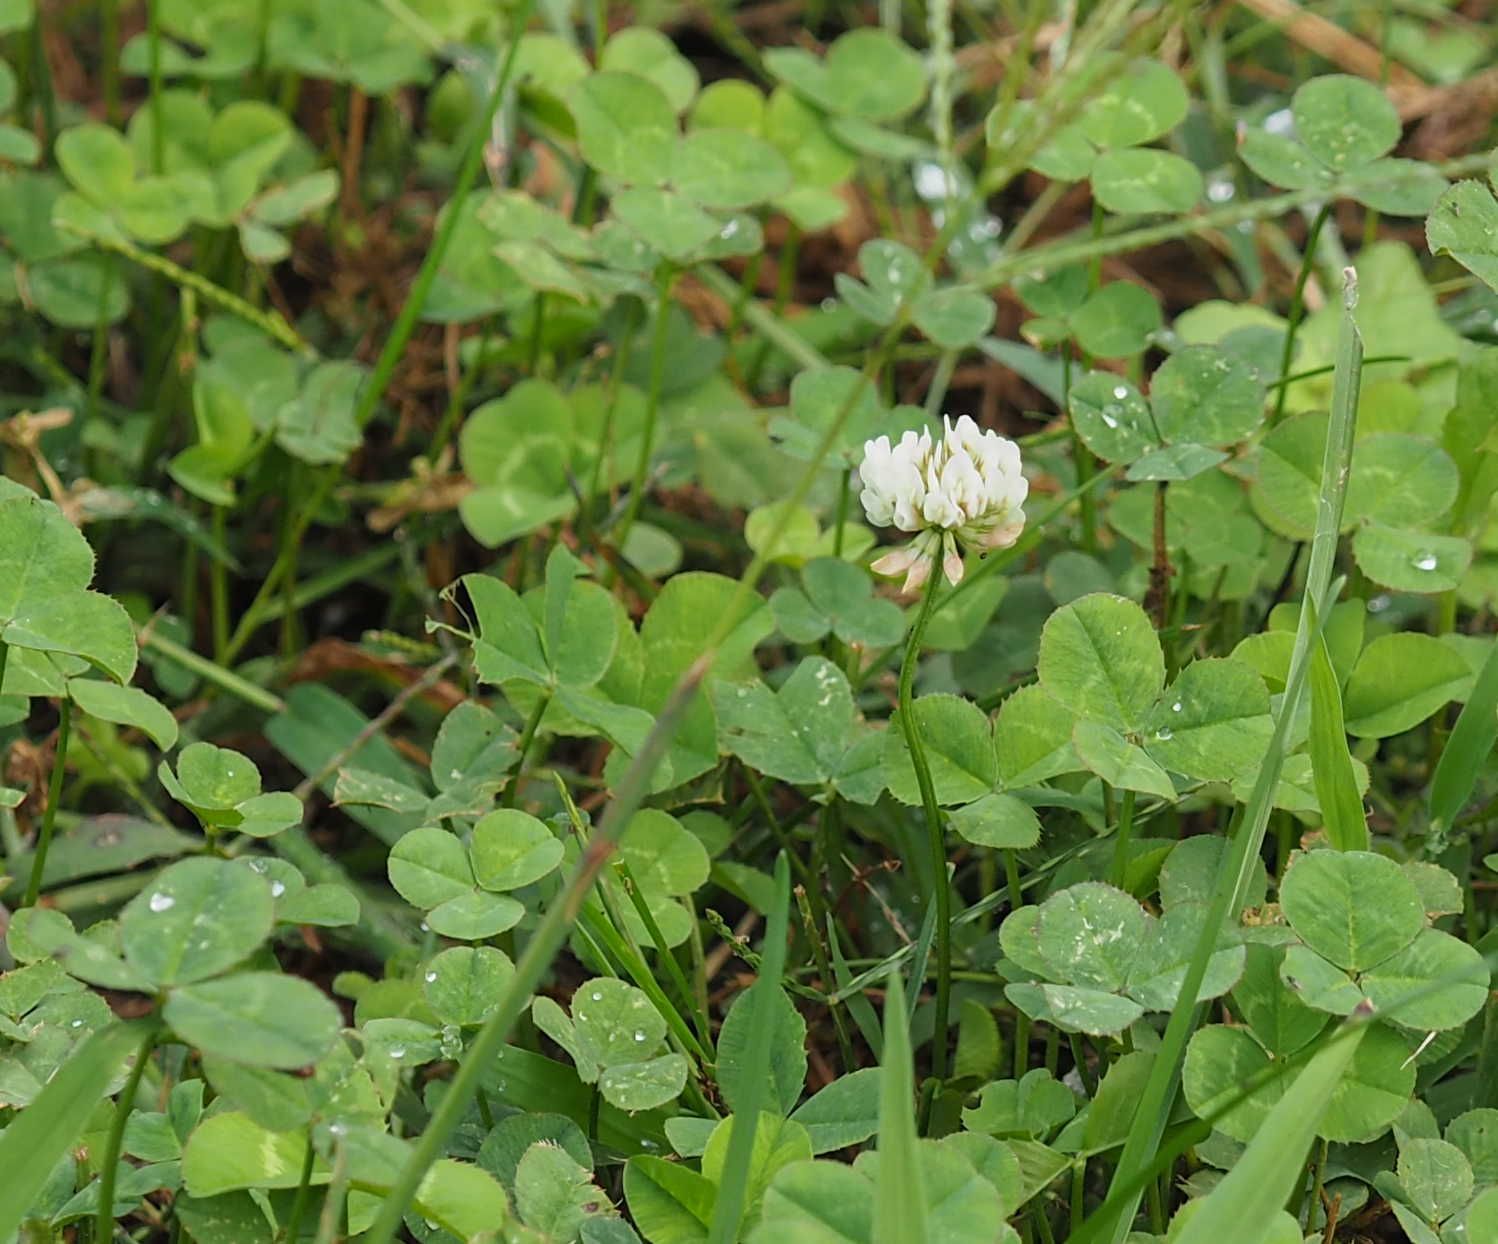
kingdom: Plantae
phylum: Tracheophyta
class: Magnoliopsida
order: Fabales
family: Fabaceae
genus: Trifolium
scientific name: Trifolium repens
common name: White clover
